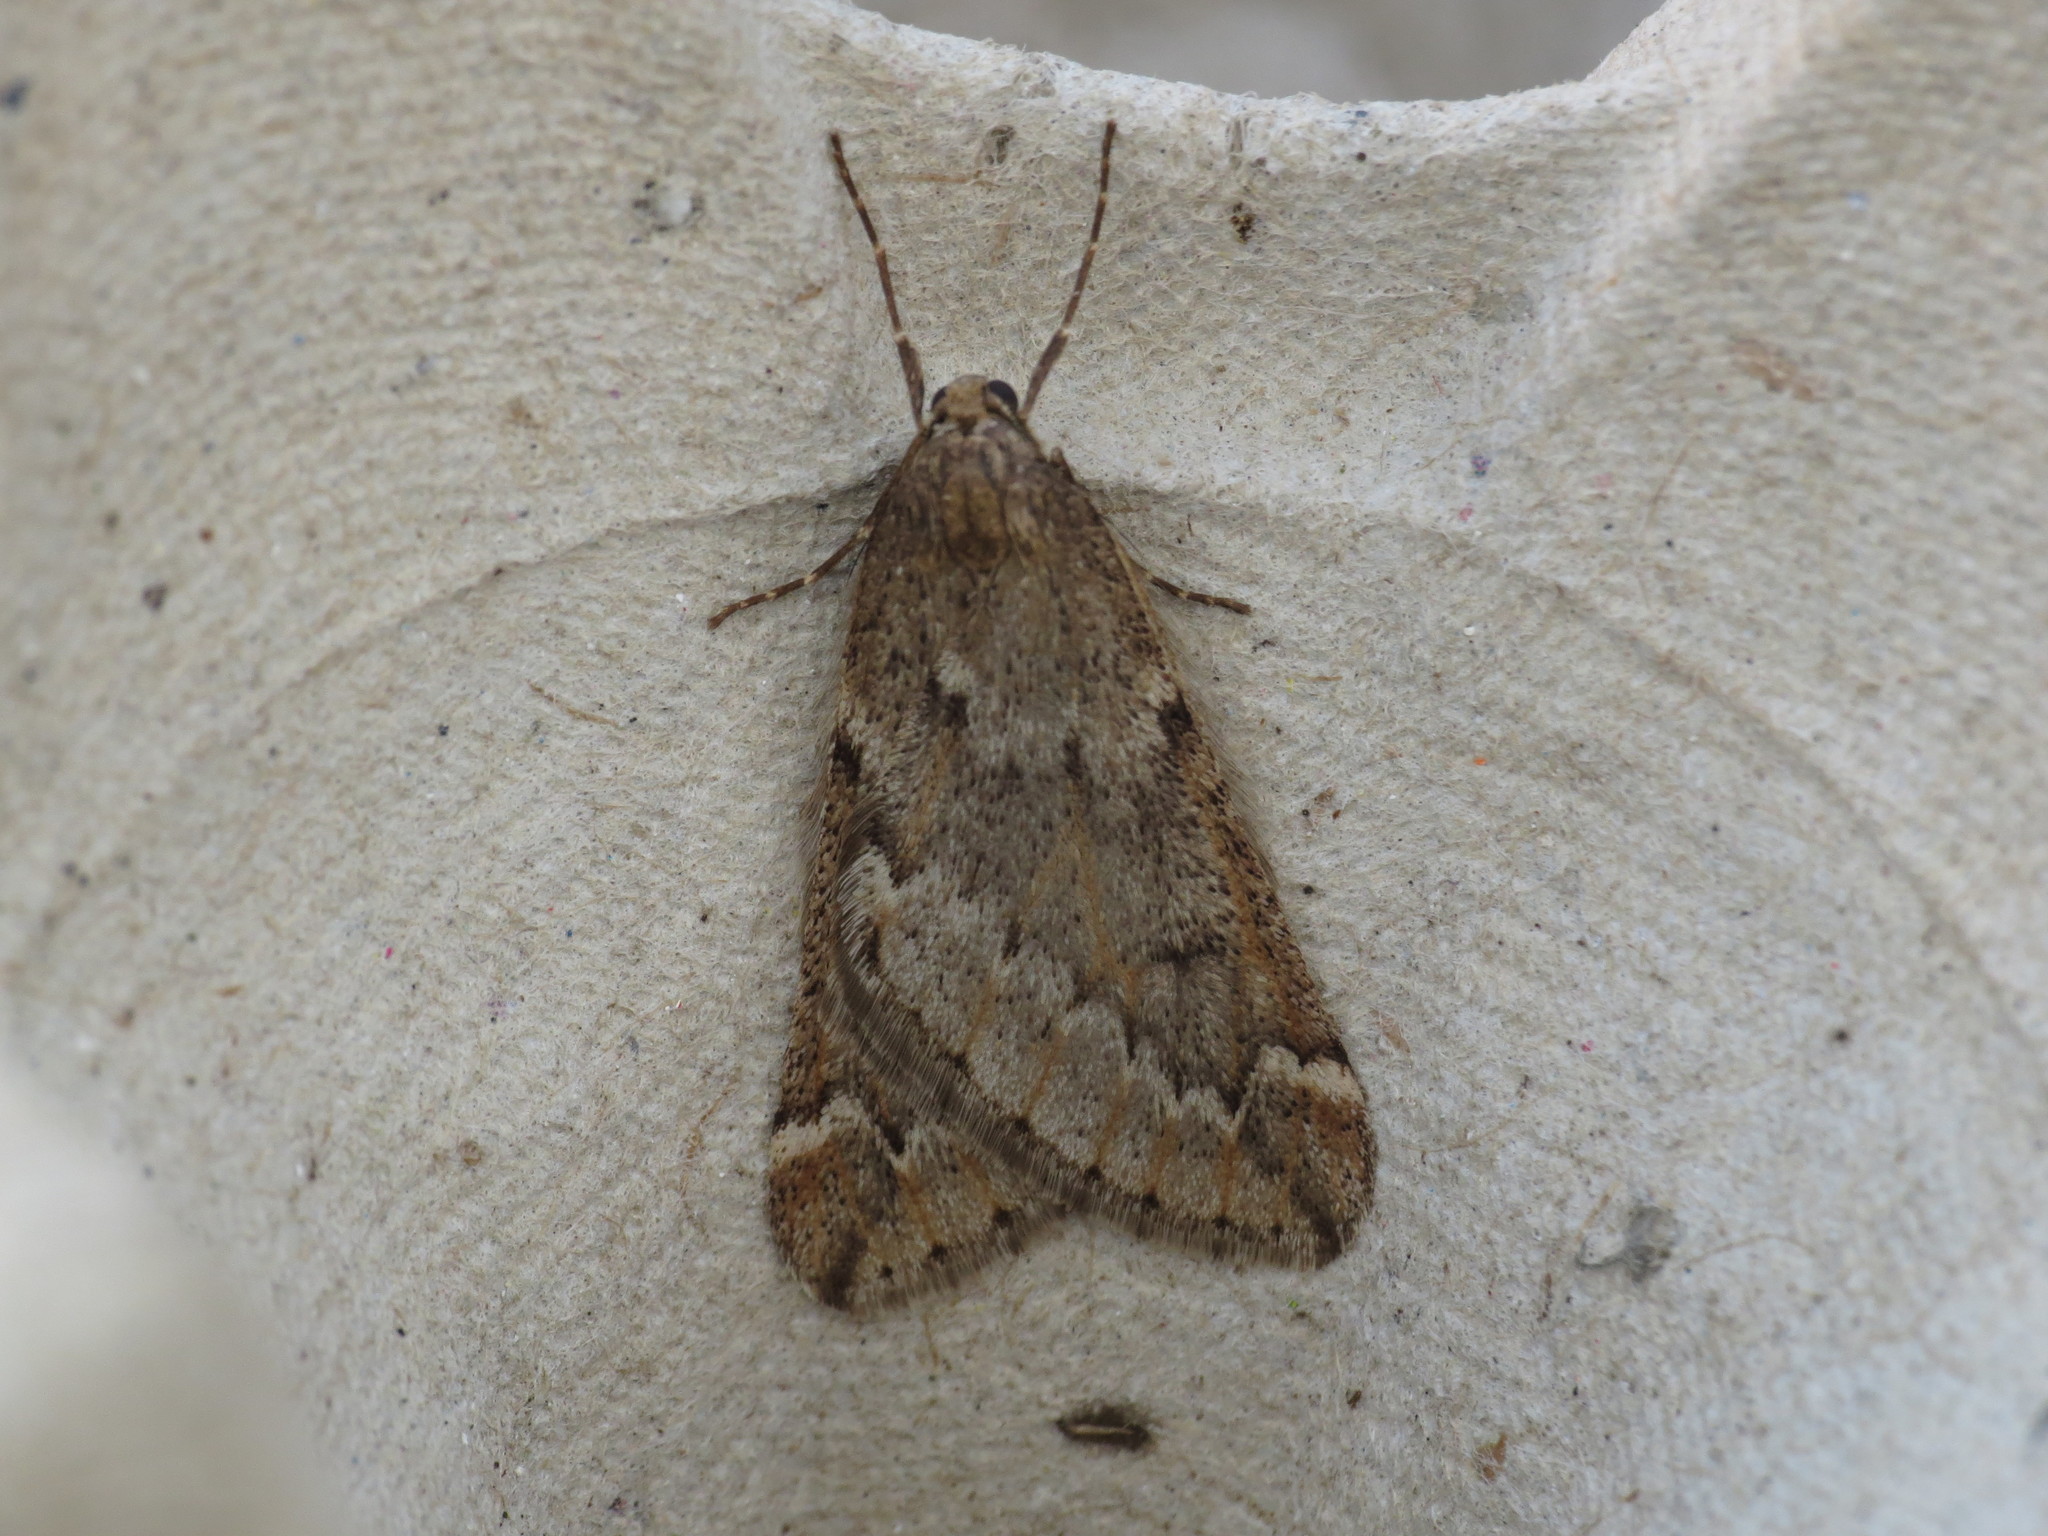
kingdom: Animalia
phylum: Arthropoda
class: Insecta
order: Lepidoptera
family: Geometridae
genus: Alsophila
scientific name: Alsophila aescularia
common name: March moth
